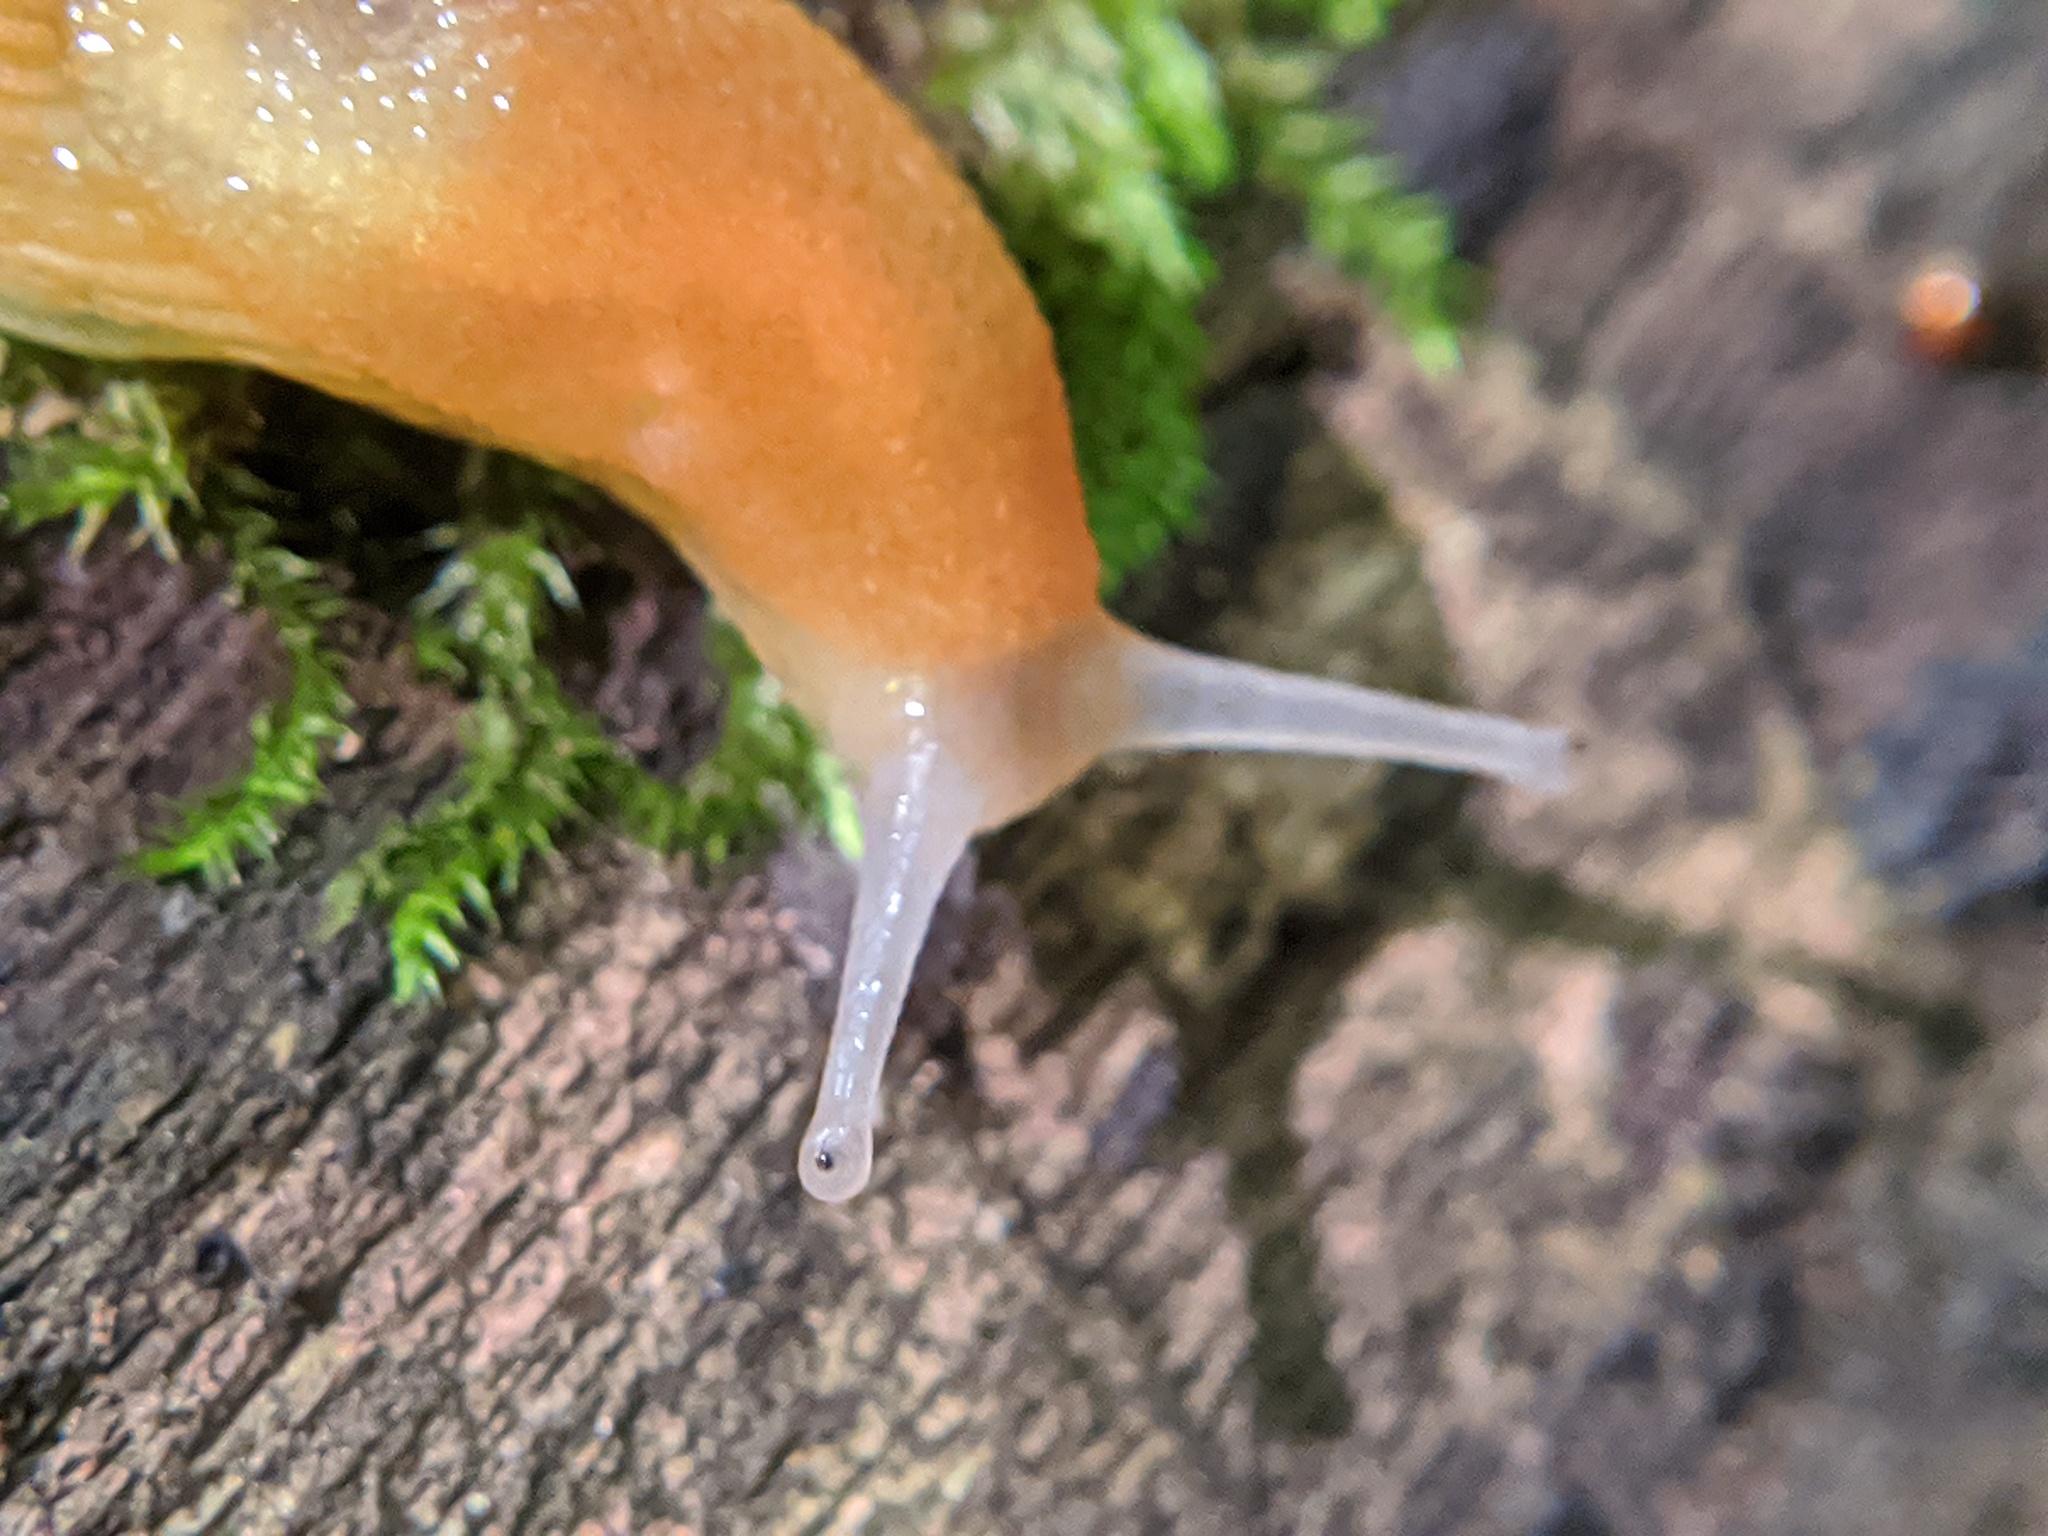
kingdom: Animalia
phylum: Mollusca
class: Gastropoda
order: Stylommatophora
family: Arionidae
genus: Arion
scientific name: Arion subfuscus
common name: Dusky arion
